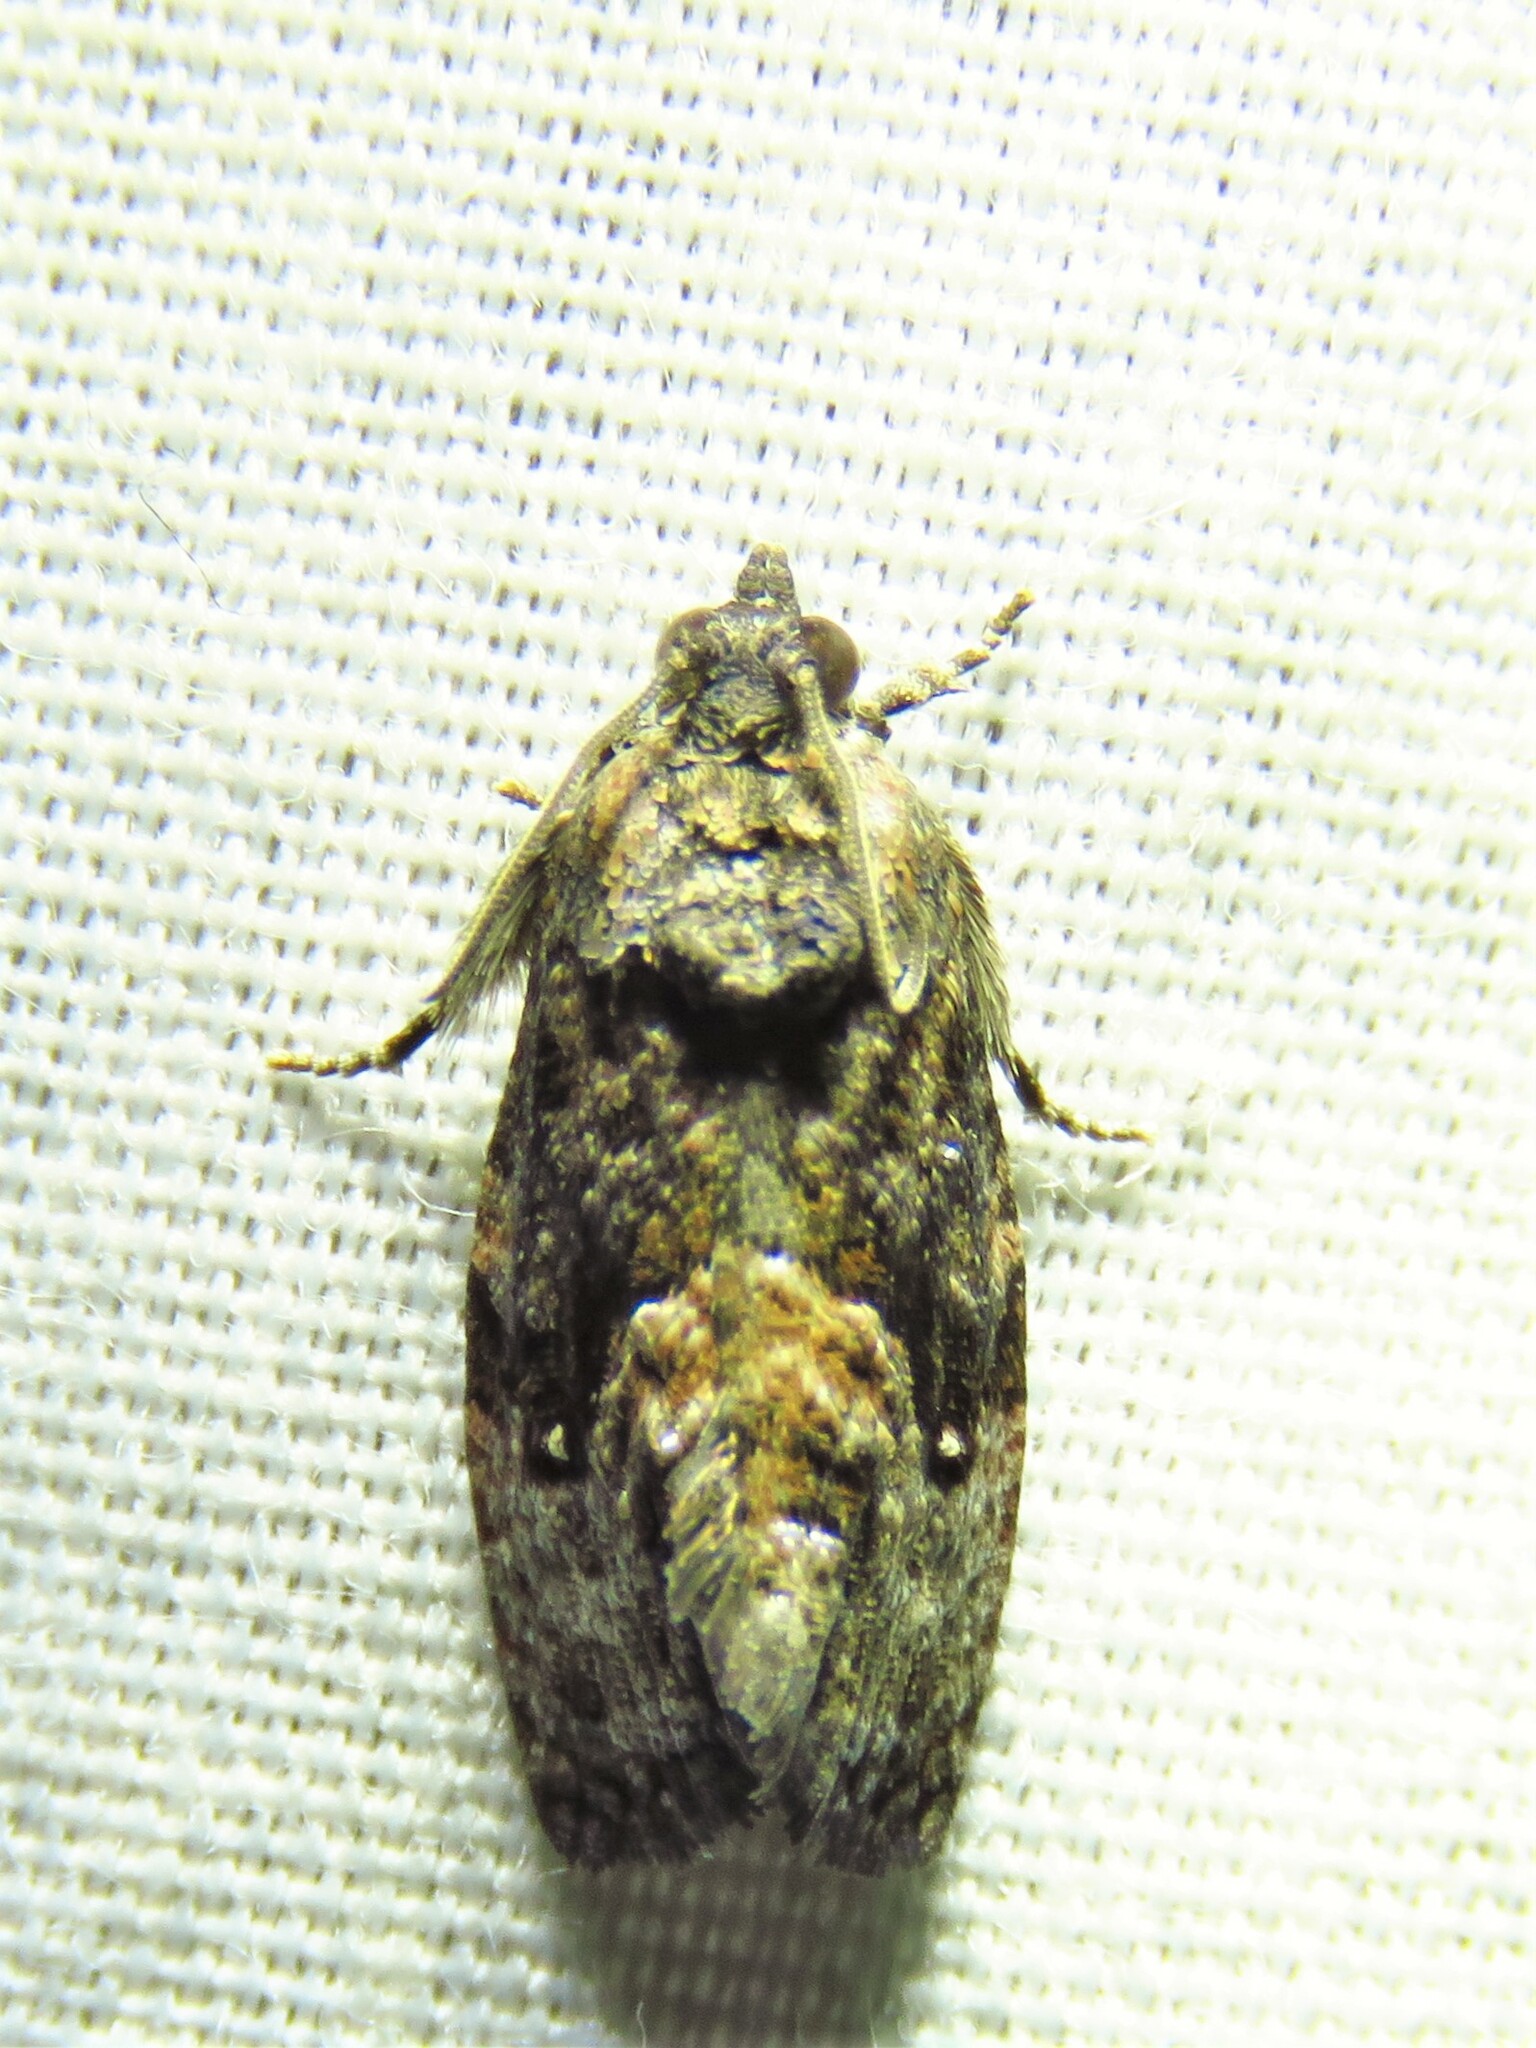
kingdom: Animalia
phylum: Arthropoda
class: Insecta
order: Lepidoptera
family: Tortricidae
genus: Gymnandrosoma
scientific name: Gymnandrosoma punctidiscanum
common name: Dotted ecdytolopha moth
